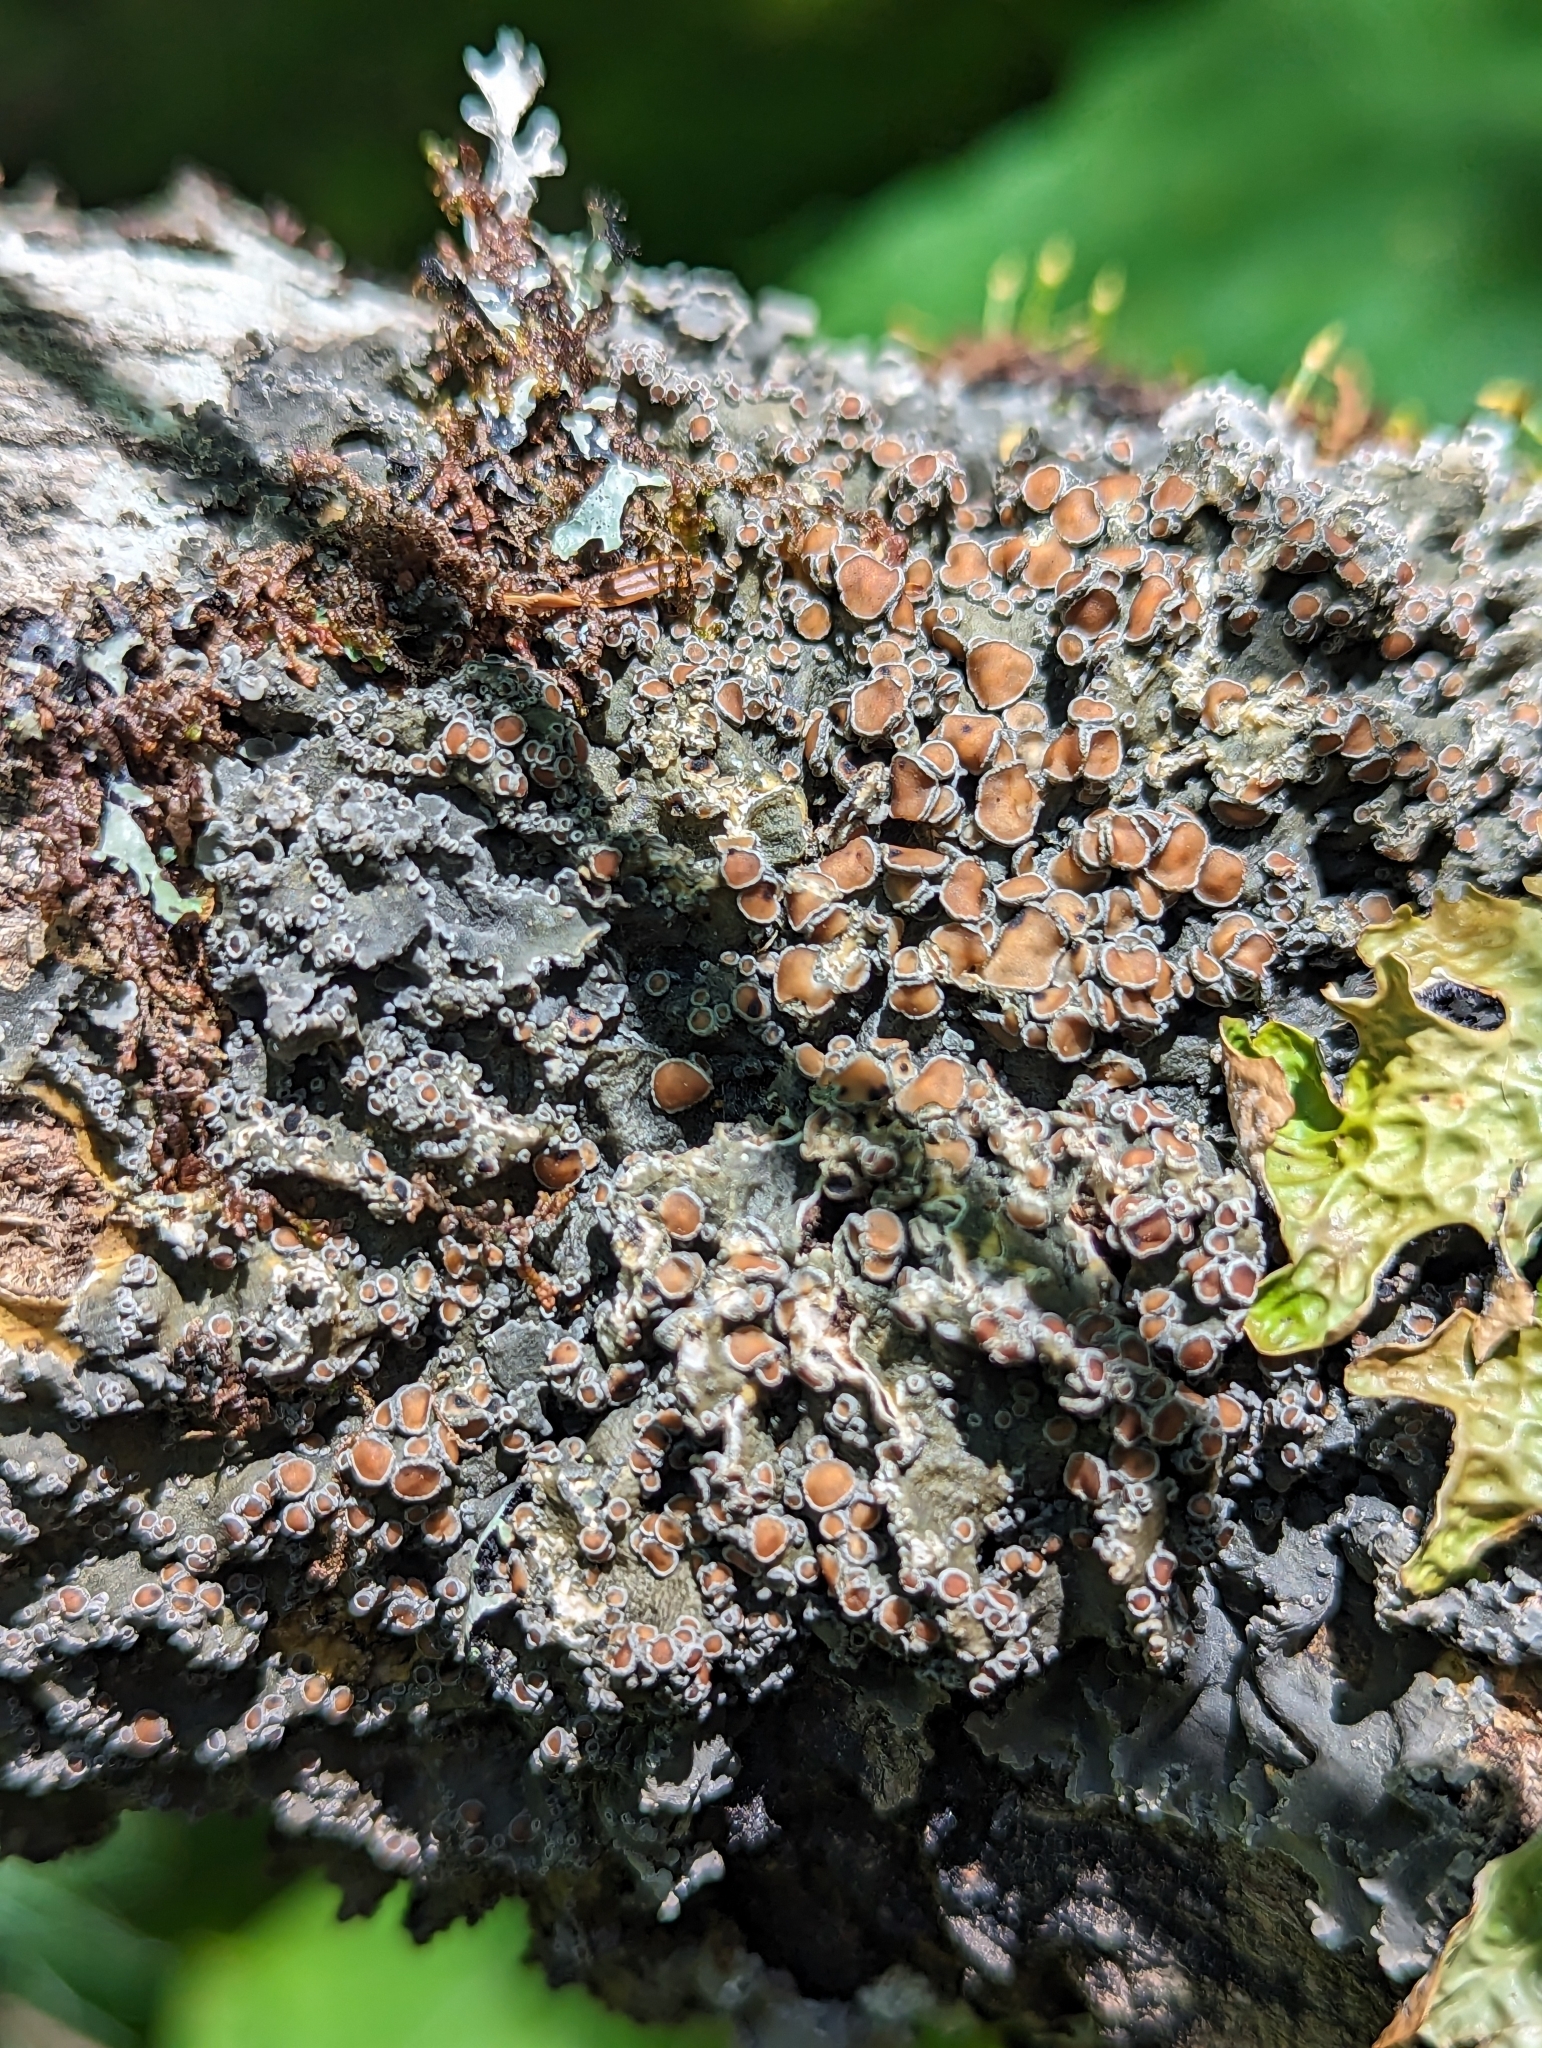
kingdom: Fungi
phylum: Ascomycota
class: Lecanoromycetes
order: Peltigerales
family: Pannariaceae
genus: Pannaria
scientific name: Pannaria lurida
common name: Wrinkled shingle lichen
